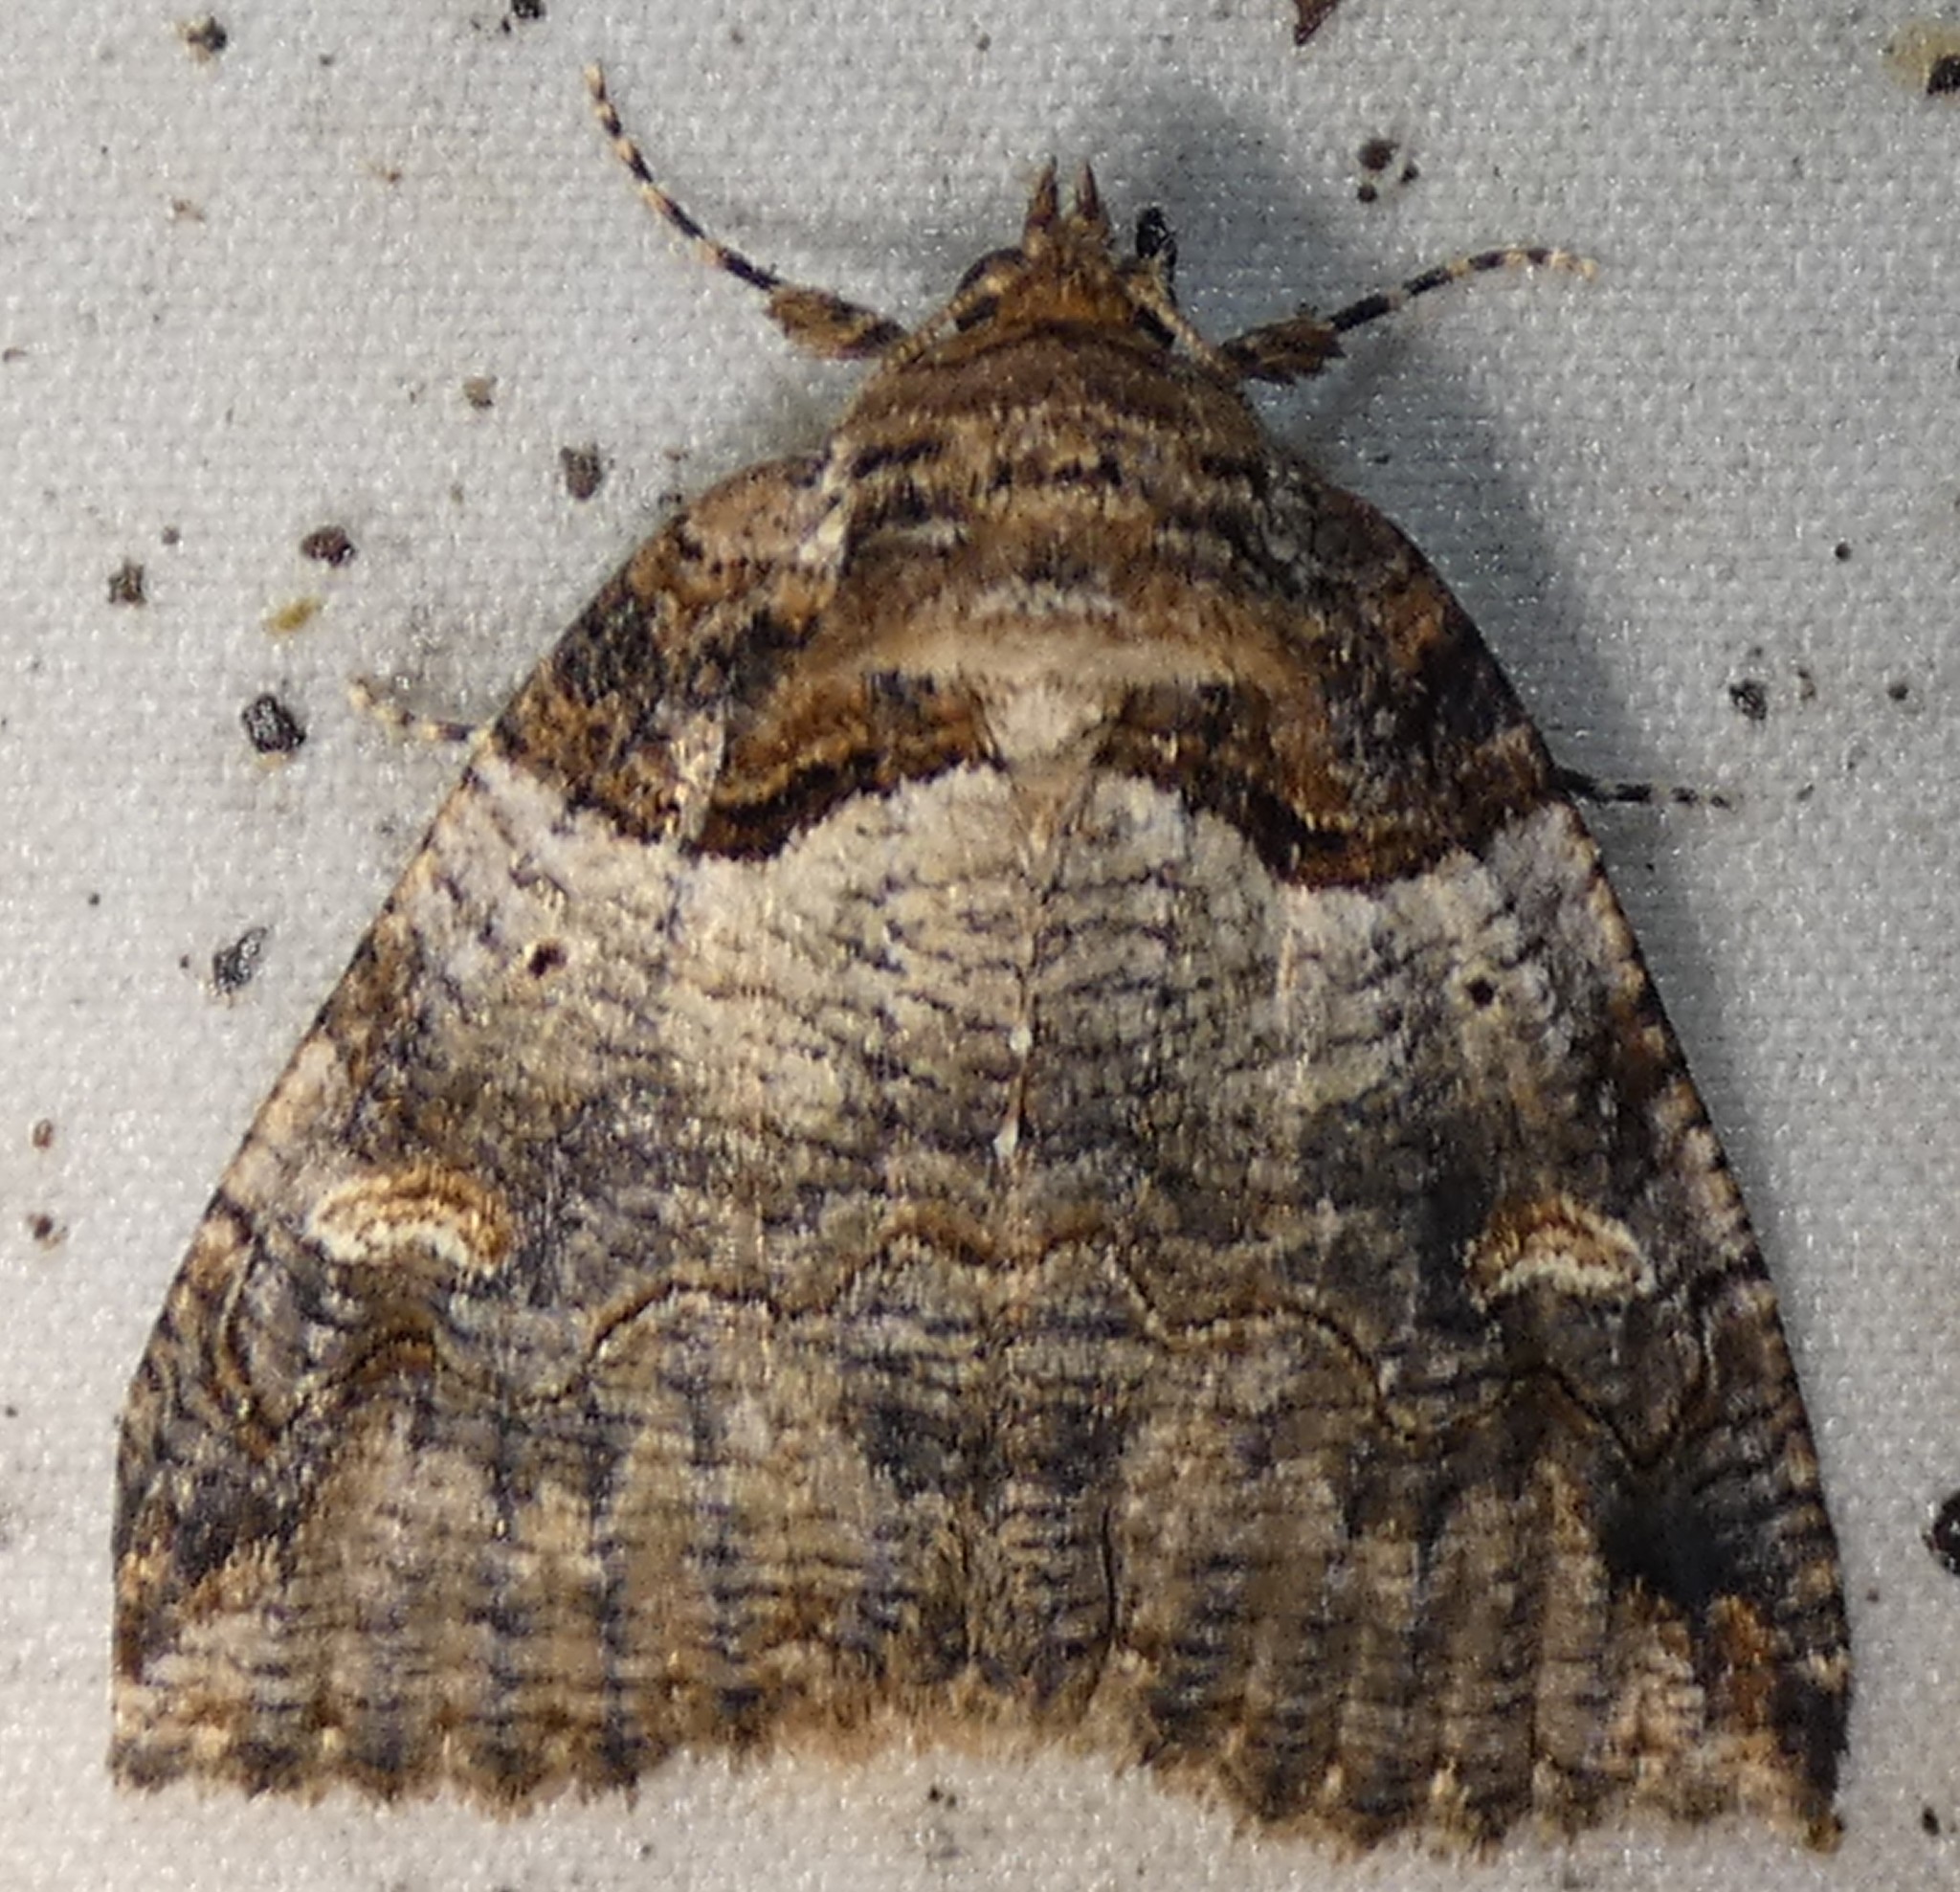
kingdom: Animalia
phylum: Arthropoda
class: Insecta
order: Lepidoptera
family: Erebidae
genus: Zale
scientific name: Zale intenta
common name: Intent zale moth
